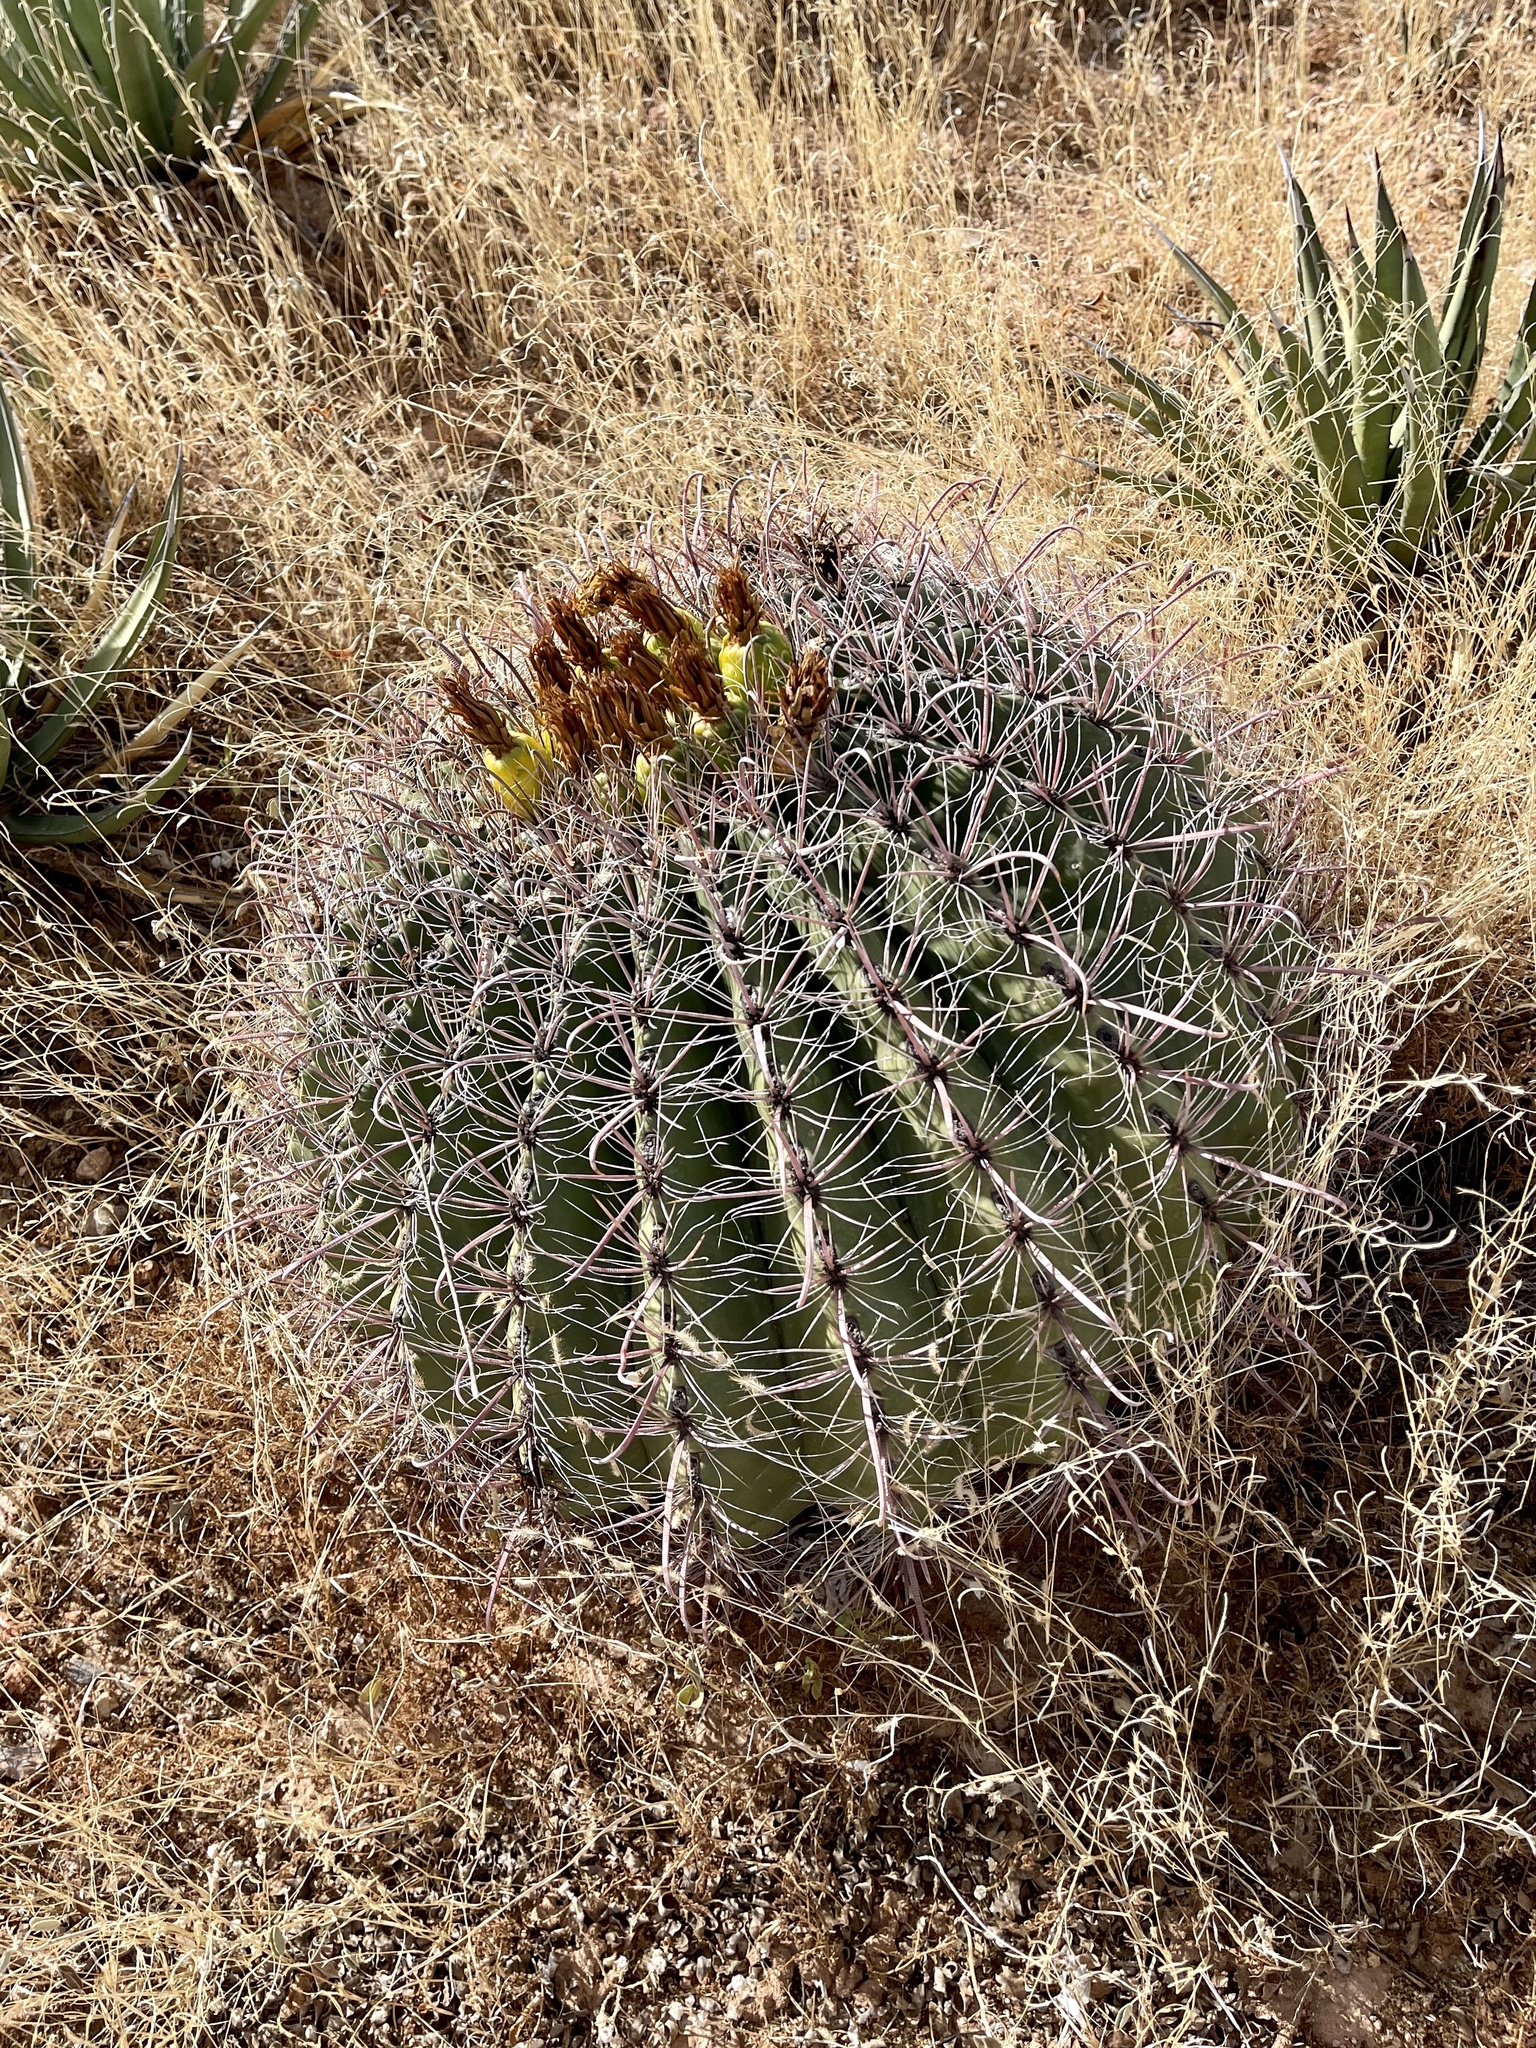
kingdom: Plantae
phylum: Tracheophyta
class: Magnoliopsida
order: Caryophyllales
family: Cactaceae
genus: Ferocactus
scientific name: Ferocactus wislizeni
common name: Candy barrel cactus
